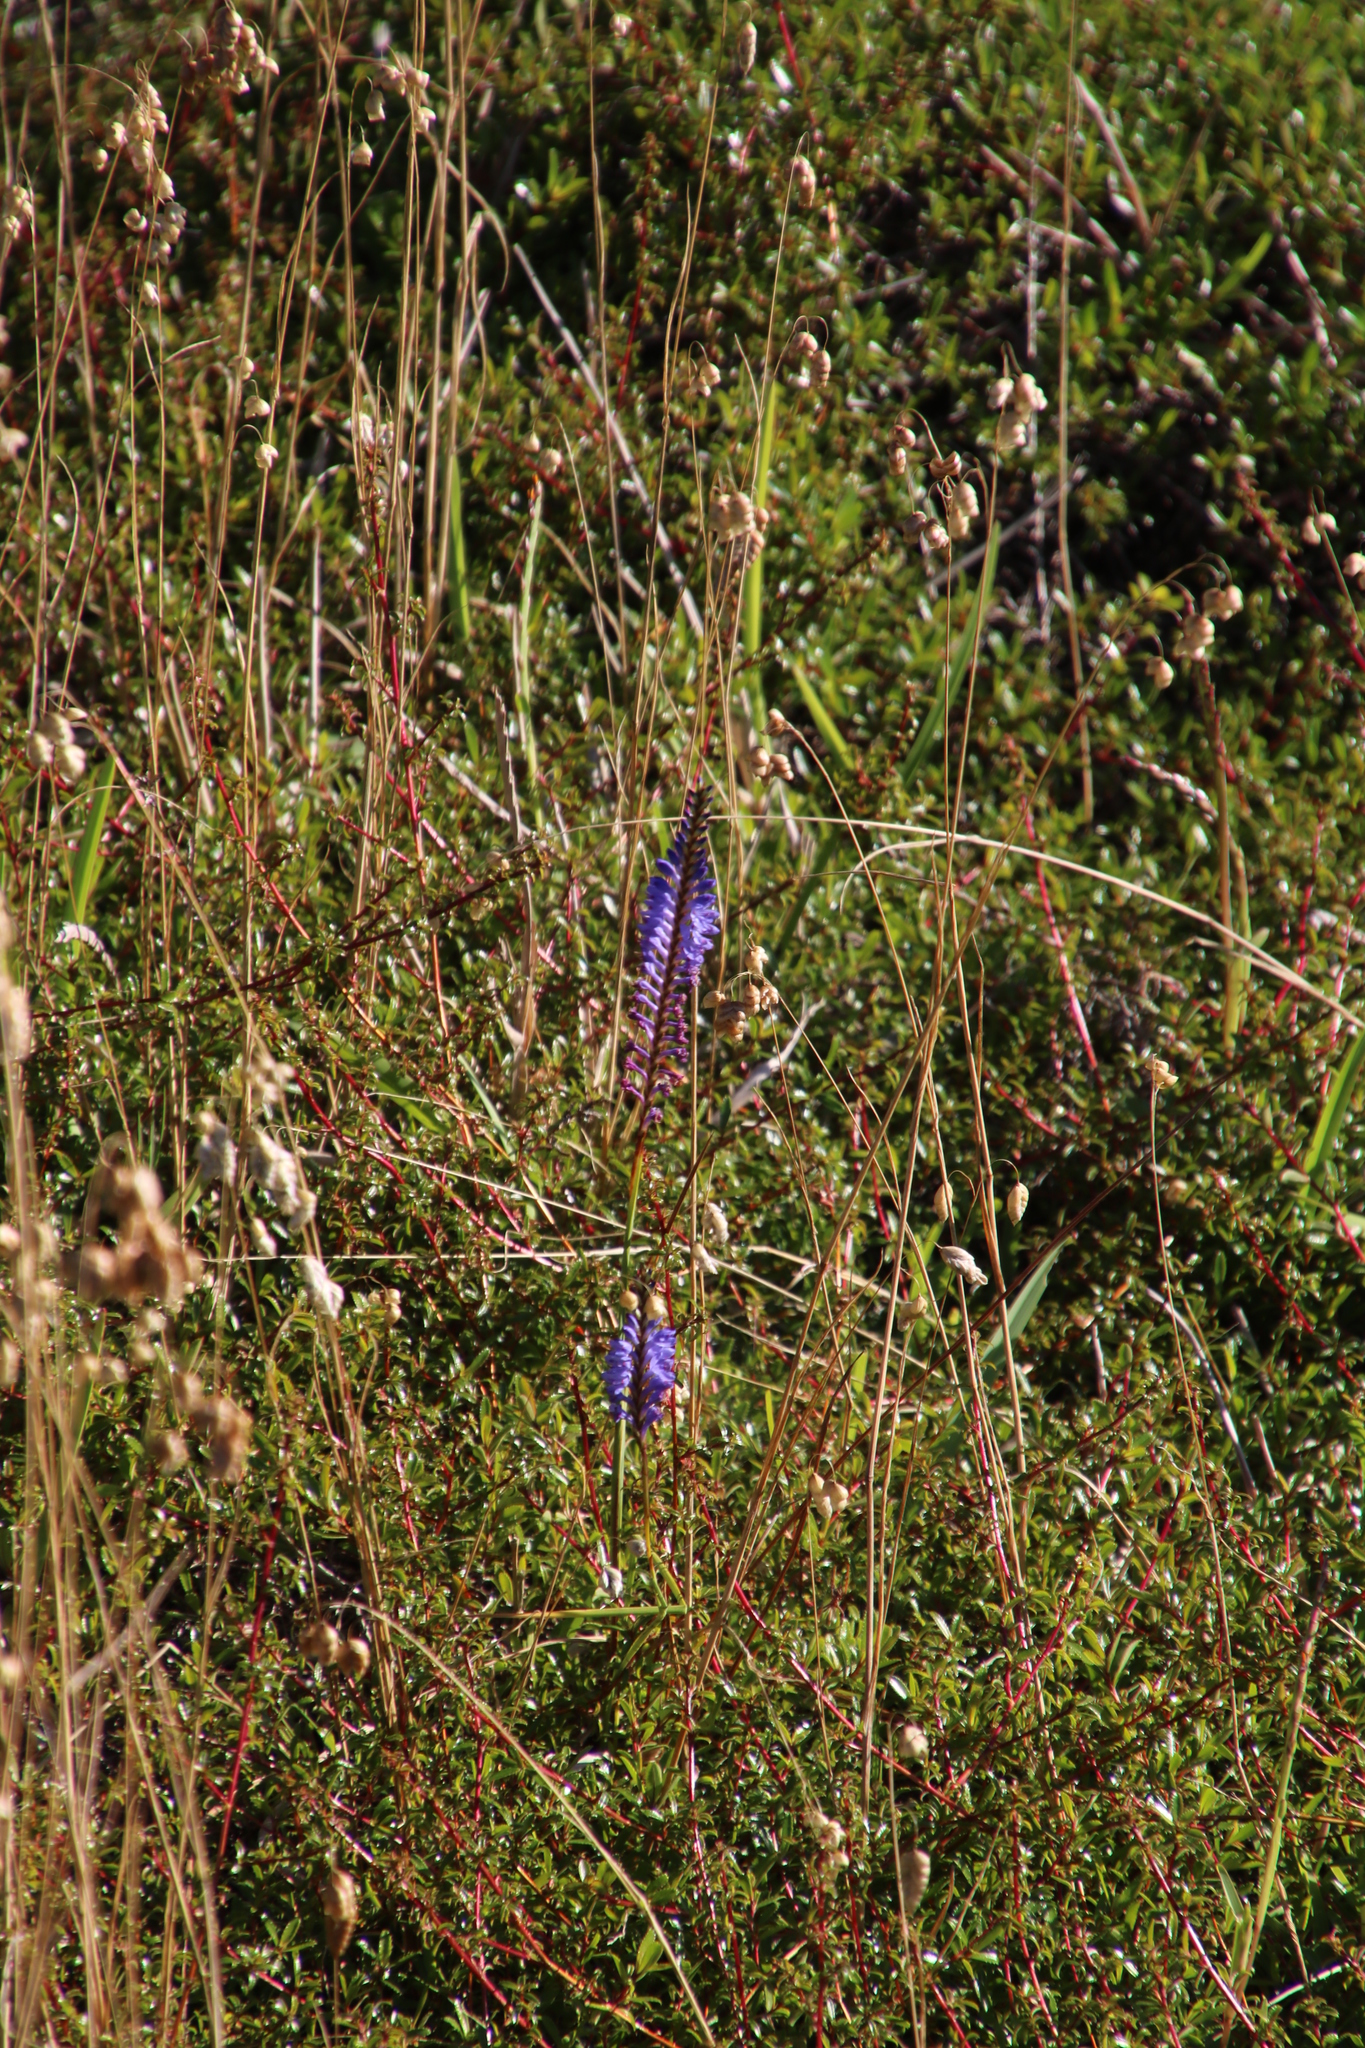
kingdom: Plantae
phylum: Tracheophyta
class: Liliopsida
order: Asparagales
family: Iridaceae
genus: Micranthus
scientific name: Micranthus alopecuroides
